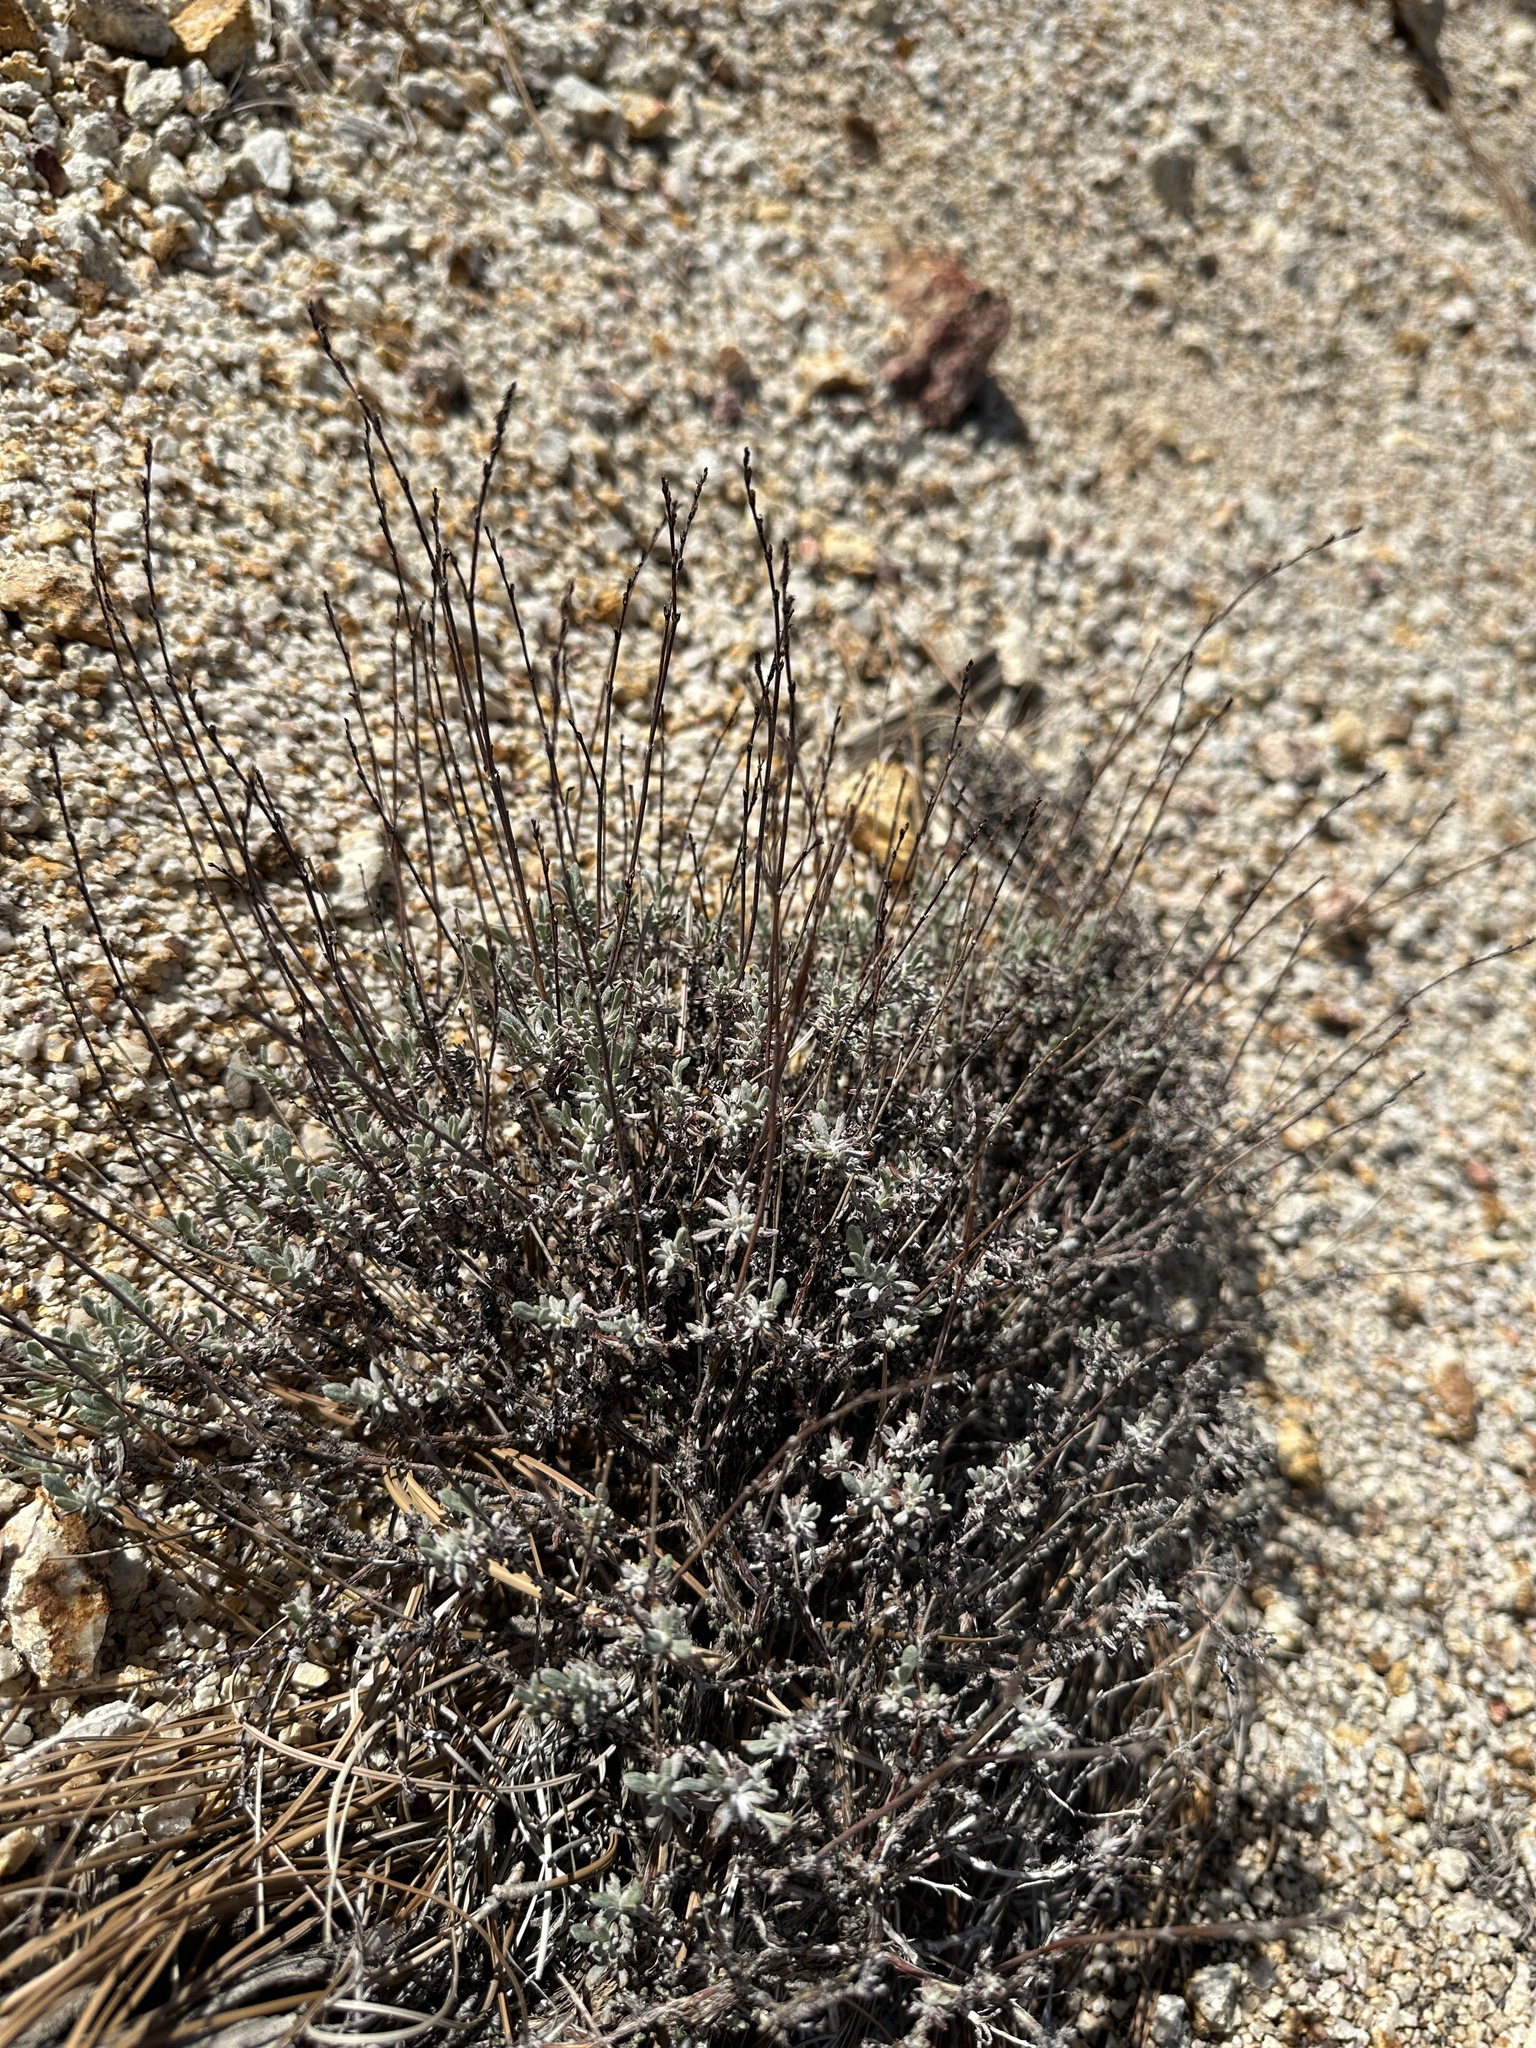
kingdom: Plantae
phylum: Tracheophyta
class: Magnoliopsida
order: Caryophyllales
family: Polygonaceae
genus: Eriogonum
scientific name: Eriogonum wrightii
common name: Bastard-sage
